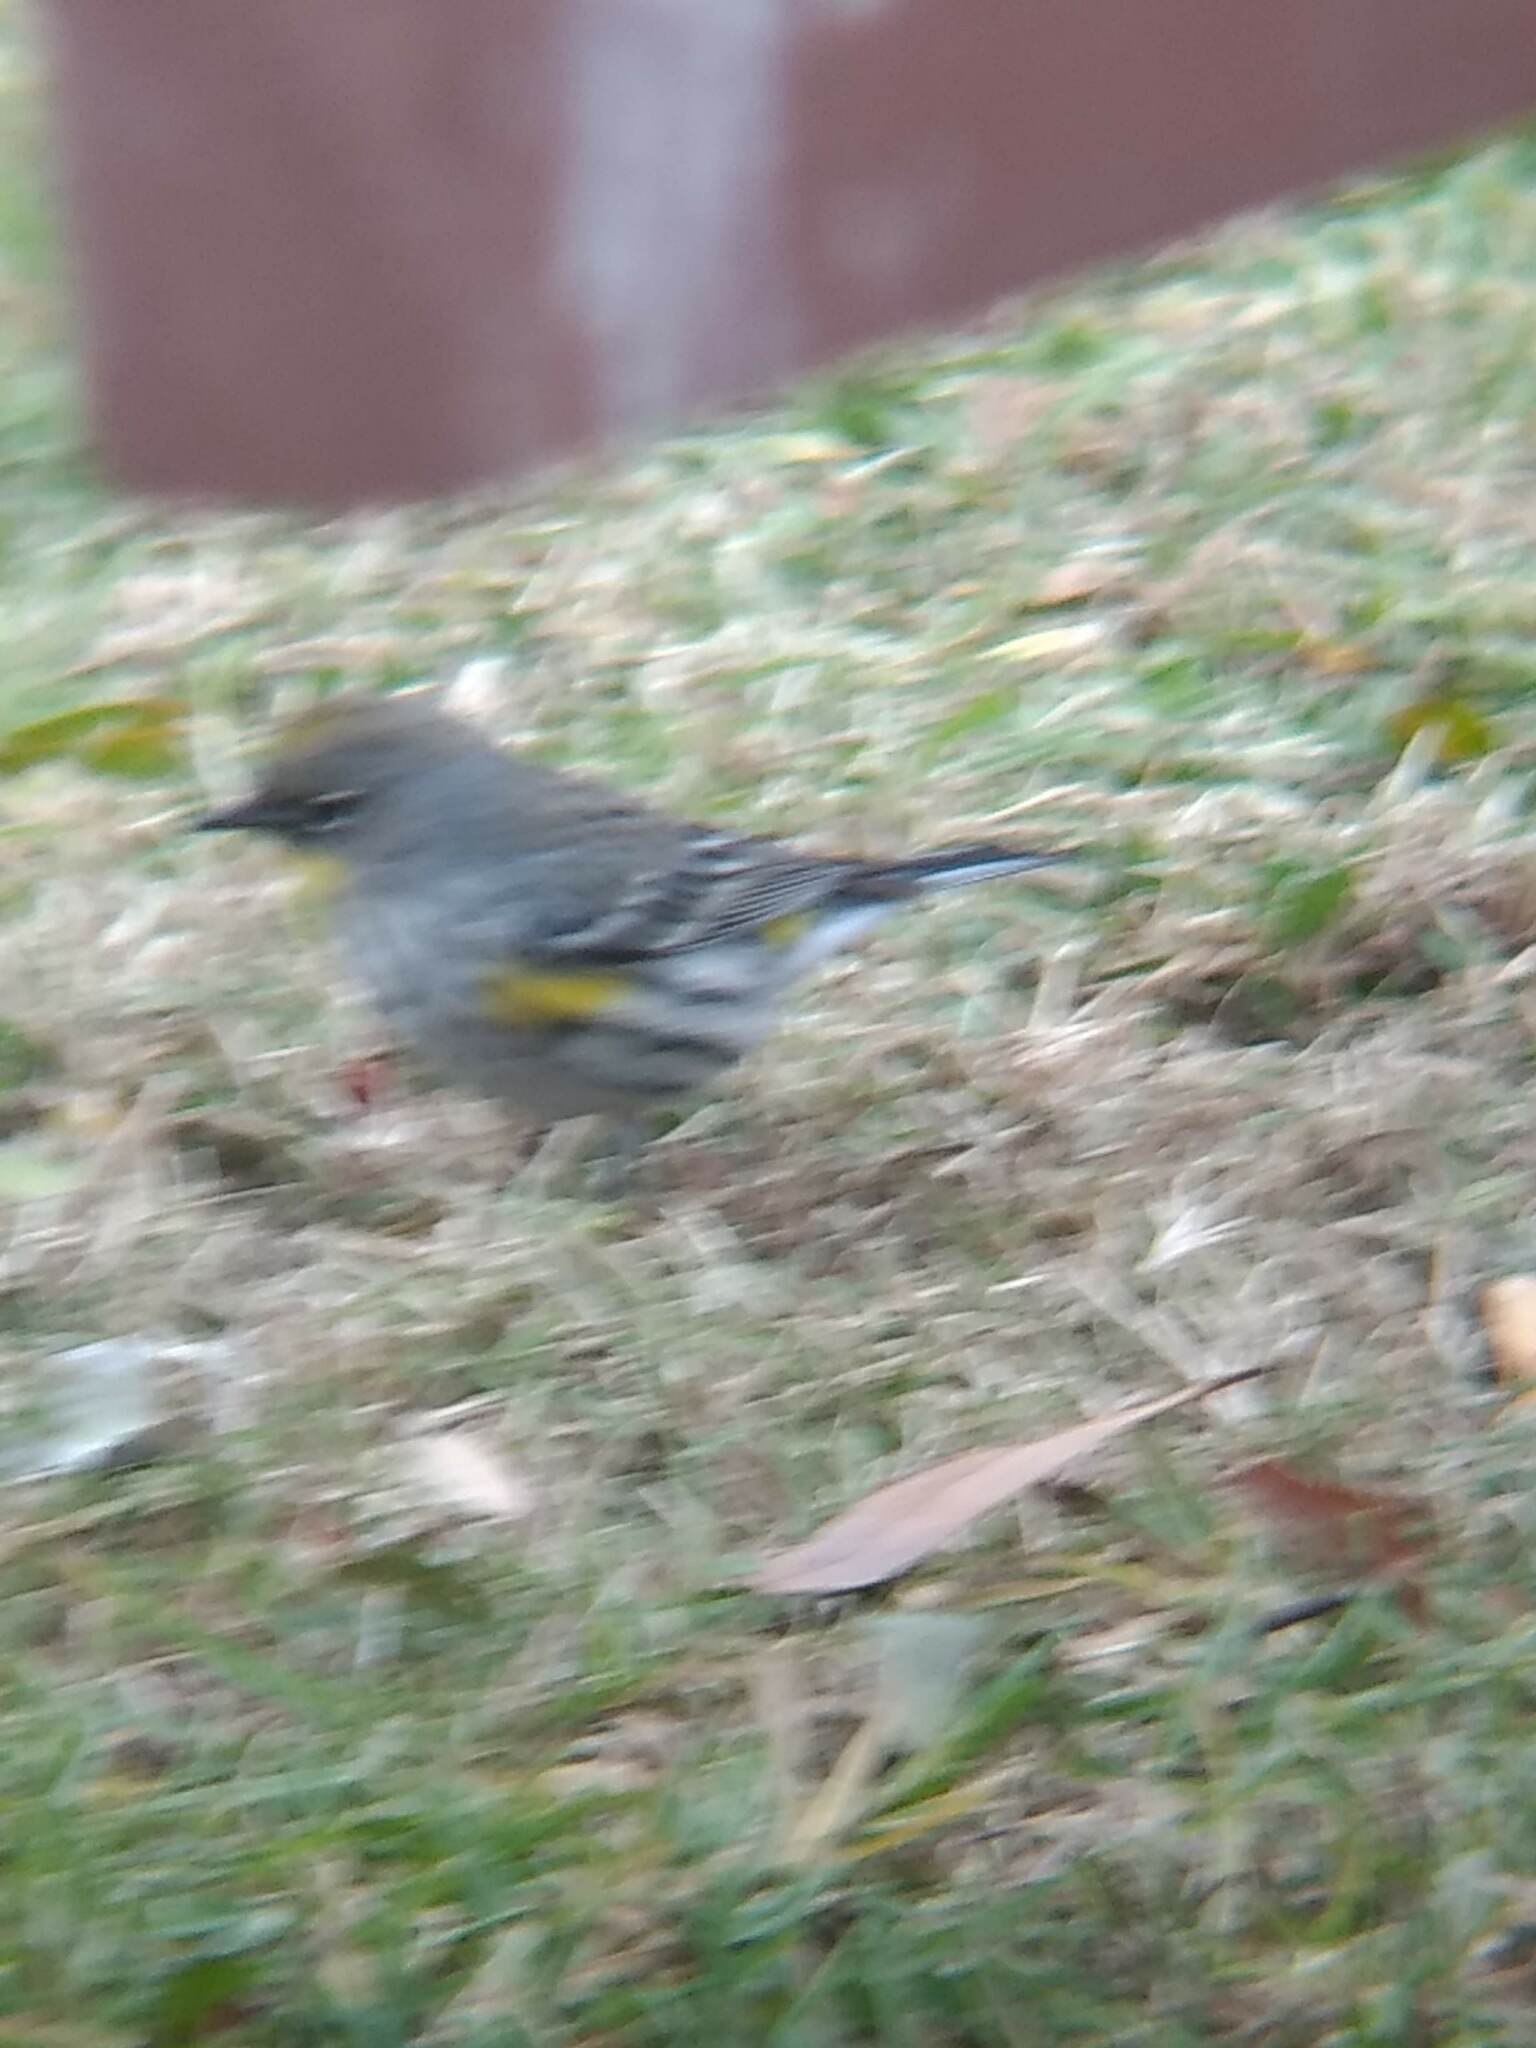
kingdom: Animalia
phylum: Chordata
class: Aves
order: Passeriformes
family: Parulidae
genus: Setophaga
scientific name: Setophaga coronata
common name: Myrtle warbler
